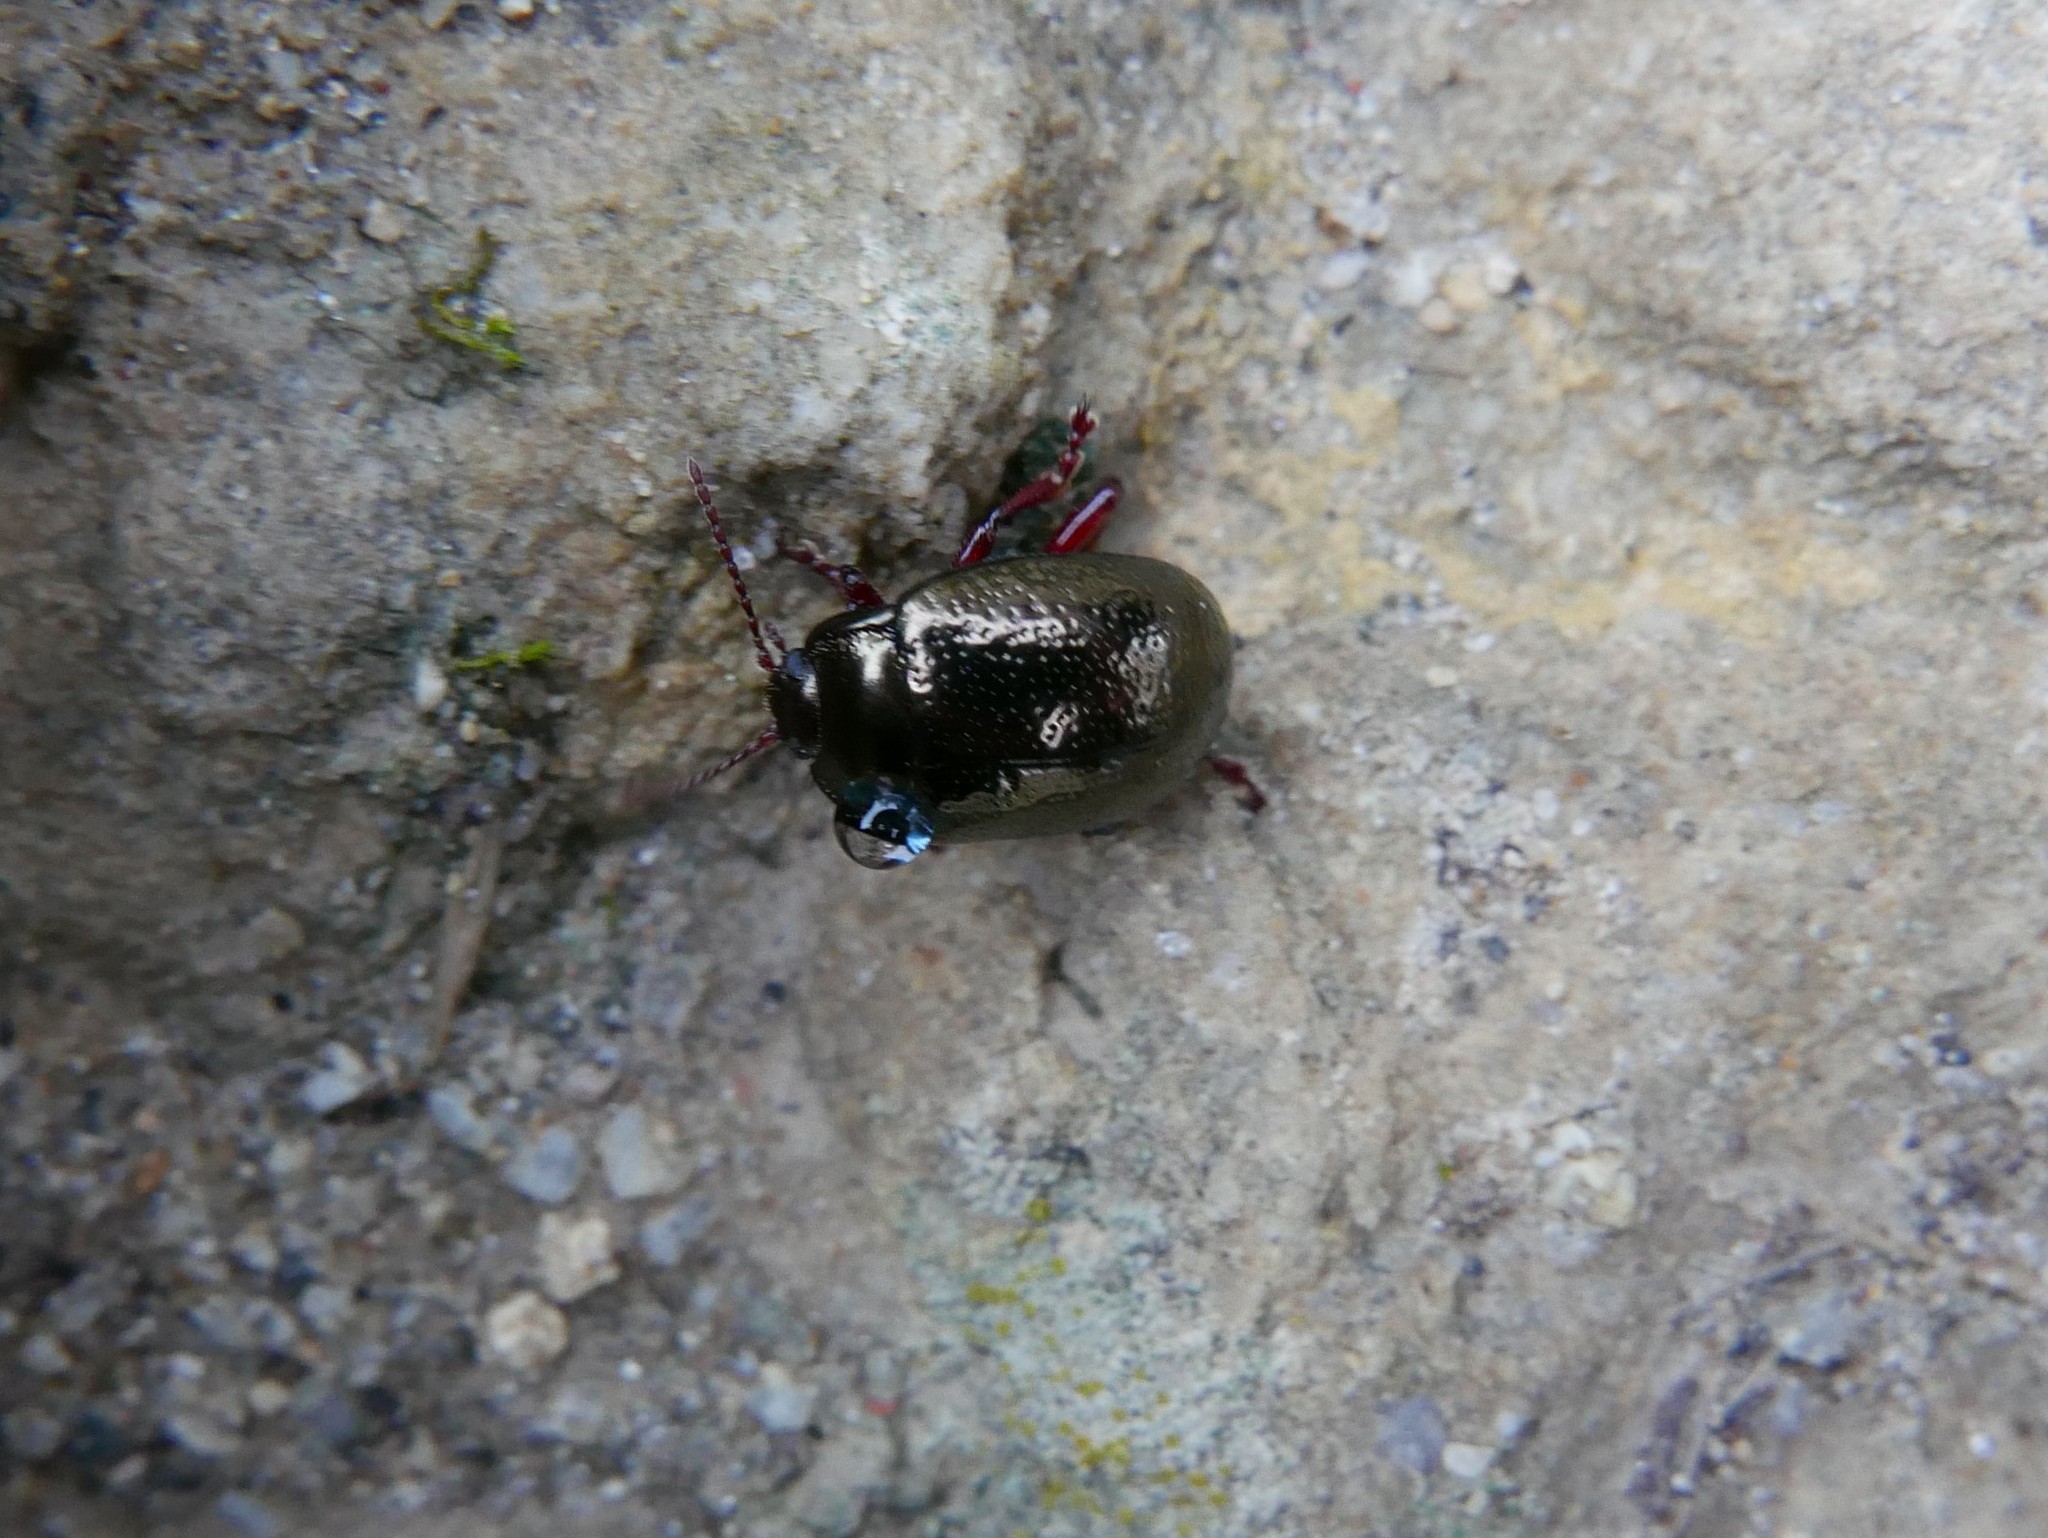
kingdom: Animalia
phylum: Arthropoda
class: Insecta
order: Coleoptera
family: Chrysomelidae
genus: Chrysolina
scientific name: Chrysolina bankii
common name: Leaf beetle
